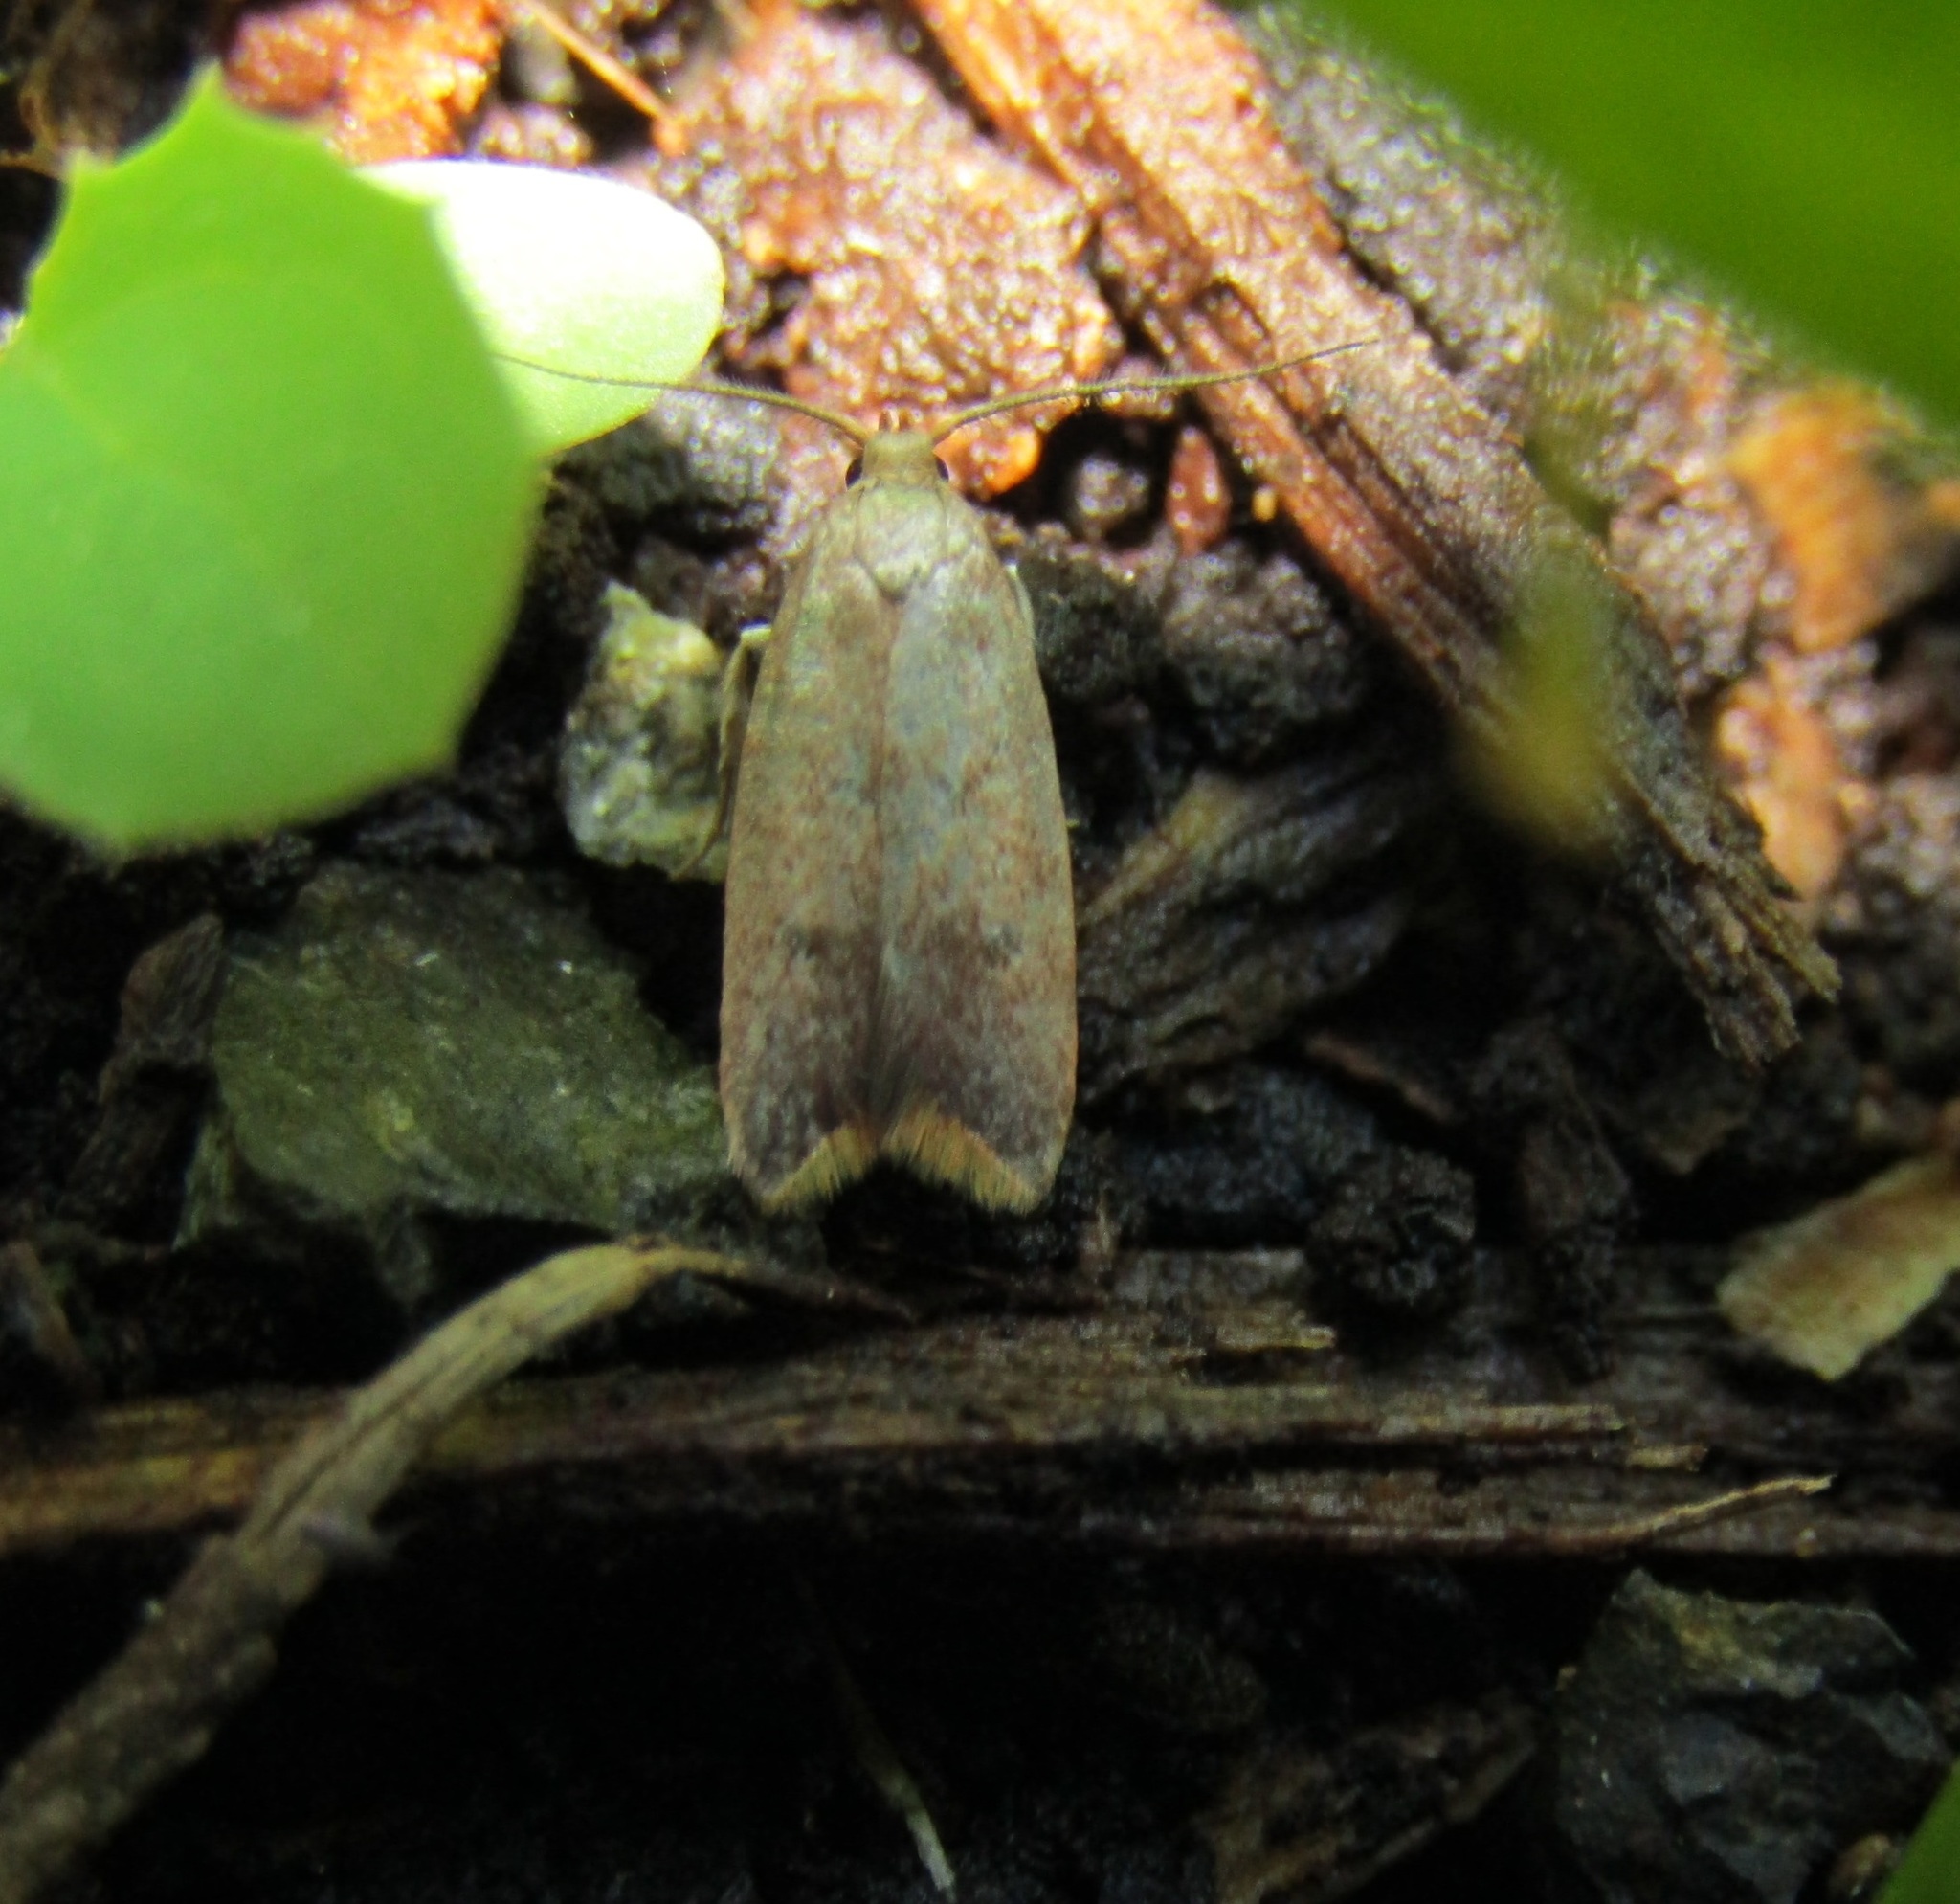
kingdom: Animalia
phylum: Arthropoda
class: Insecta
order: Lepidoptera
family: Oecophoridae
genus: Tachystola
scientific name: Tachystola acroxantha
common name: Ruddy streak
